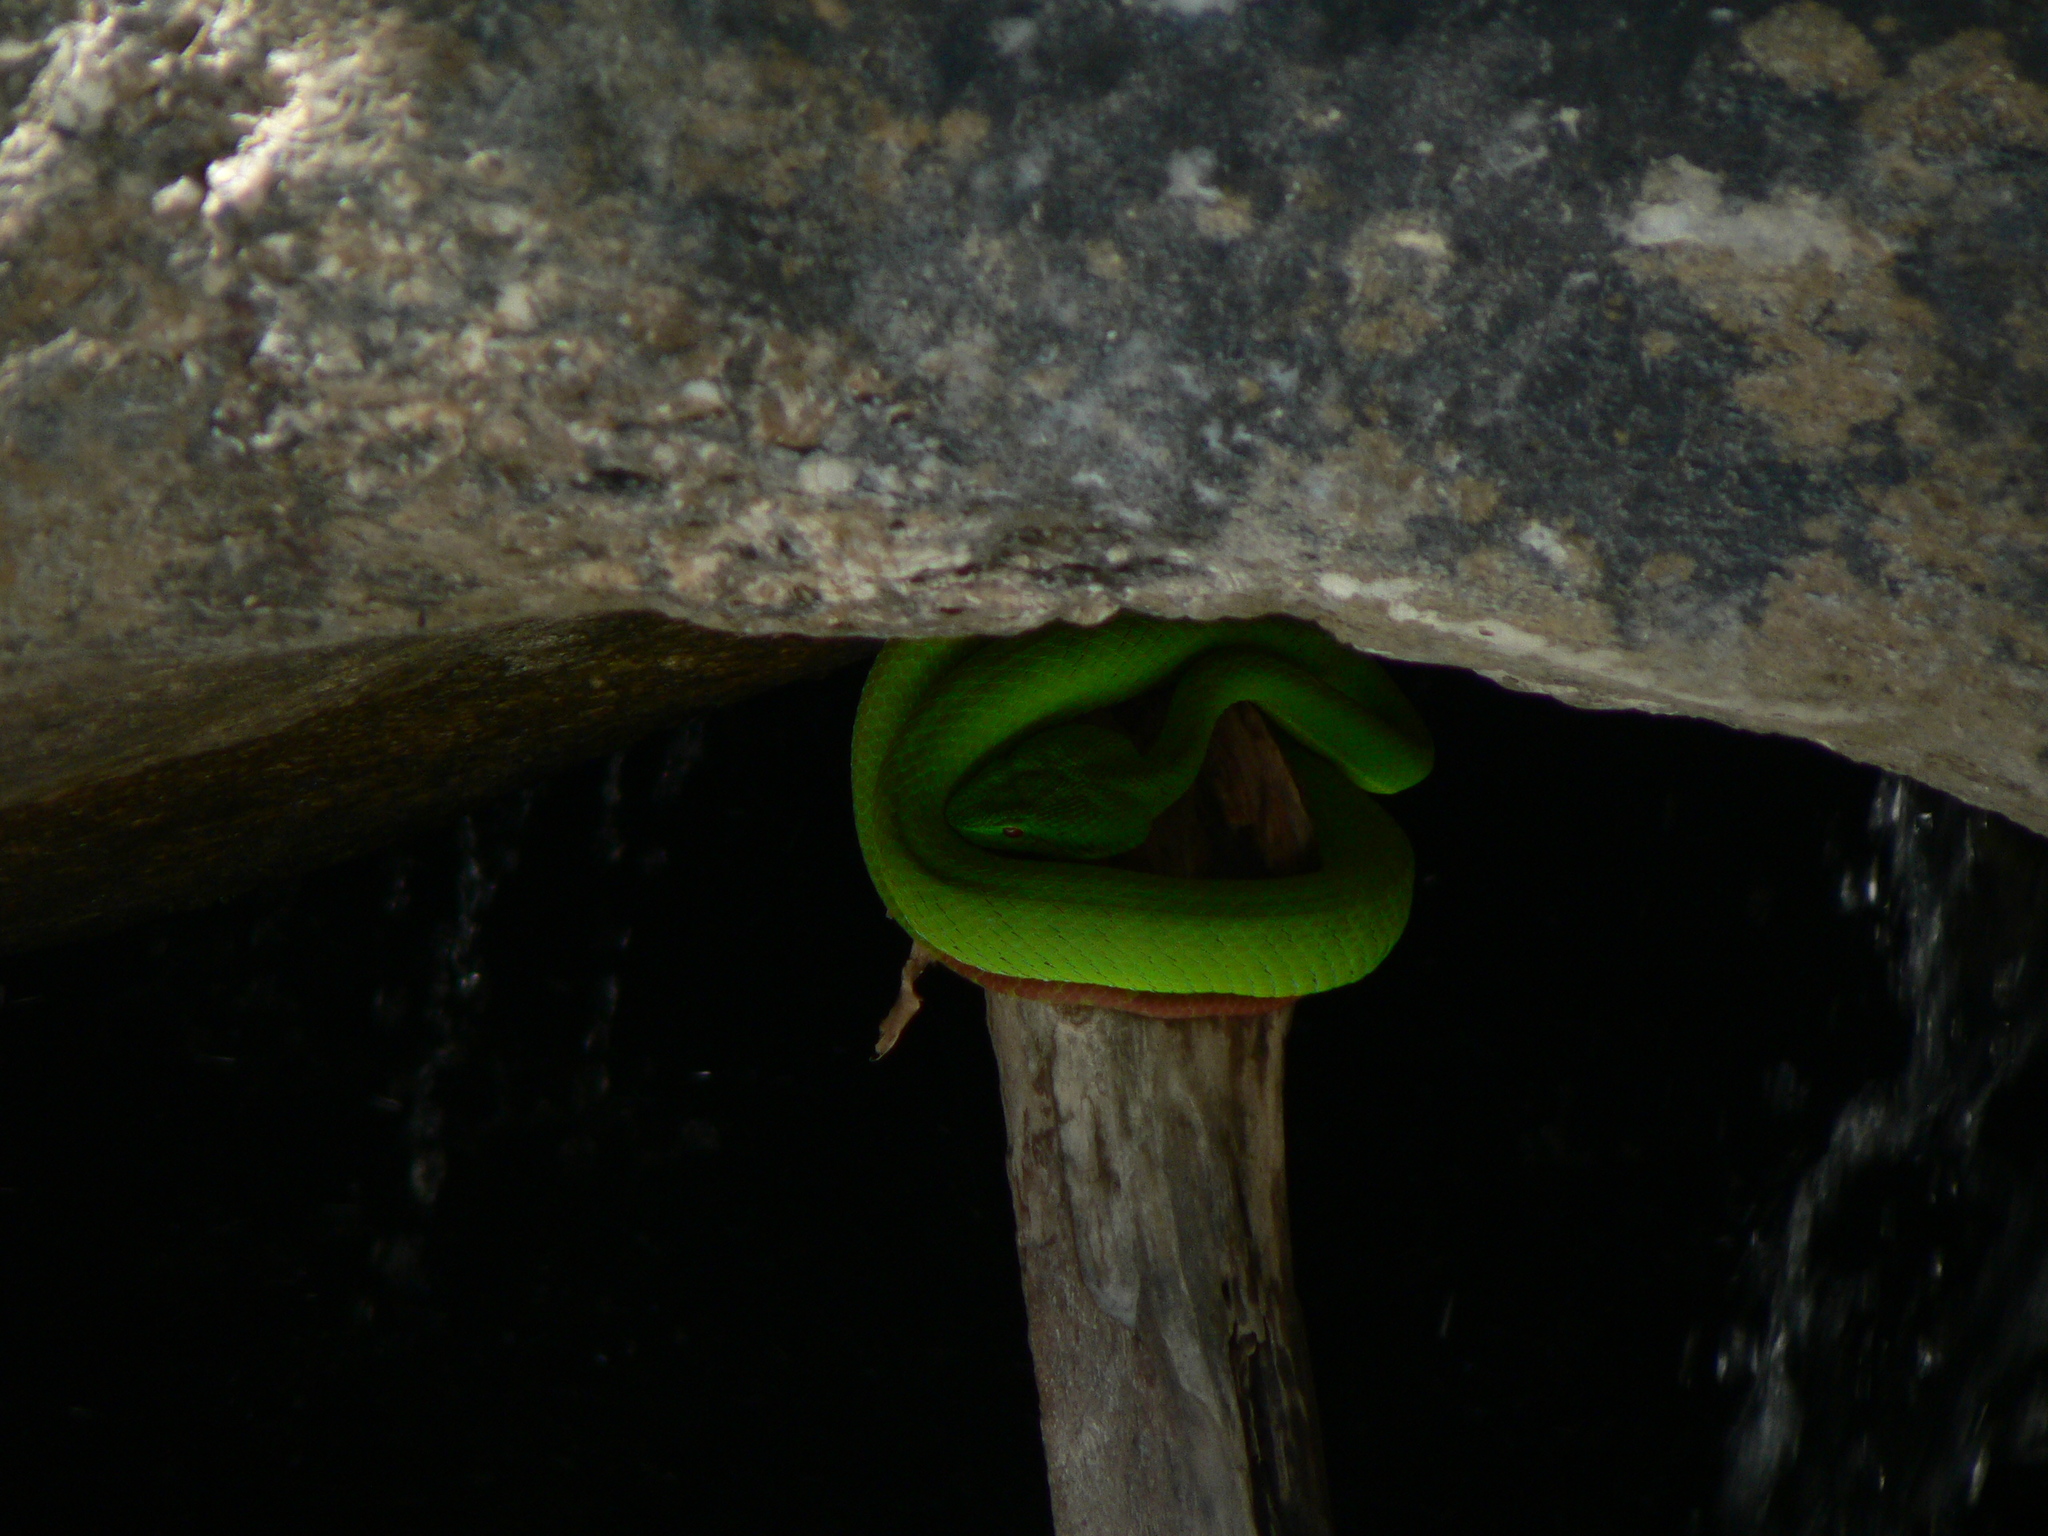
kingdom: Animalia
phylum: Chordata
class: Squamata
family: Viperidae
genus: Trimeresurus
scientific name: Trimeresurus popeiorum
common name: Pope's bamboo pit viper
